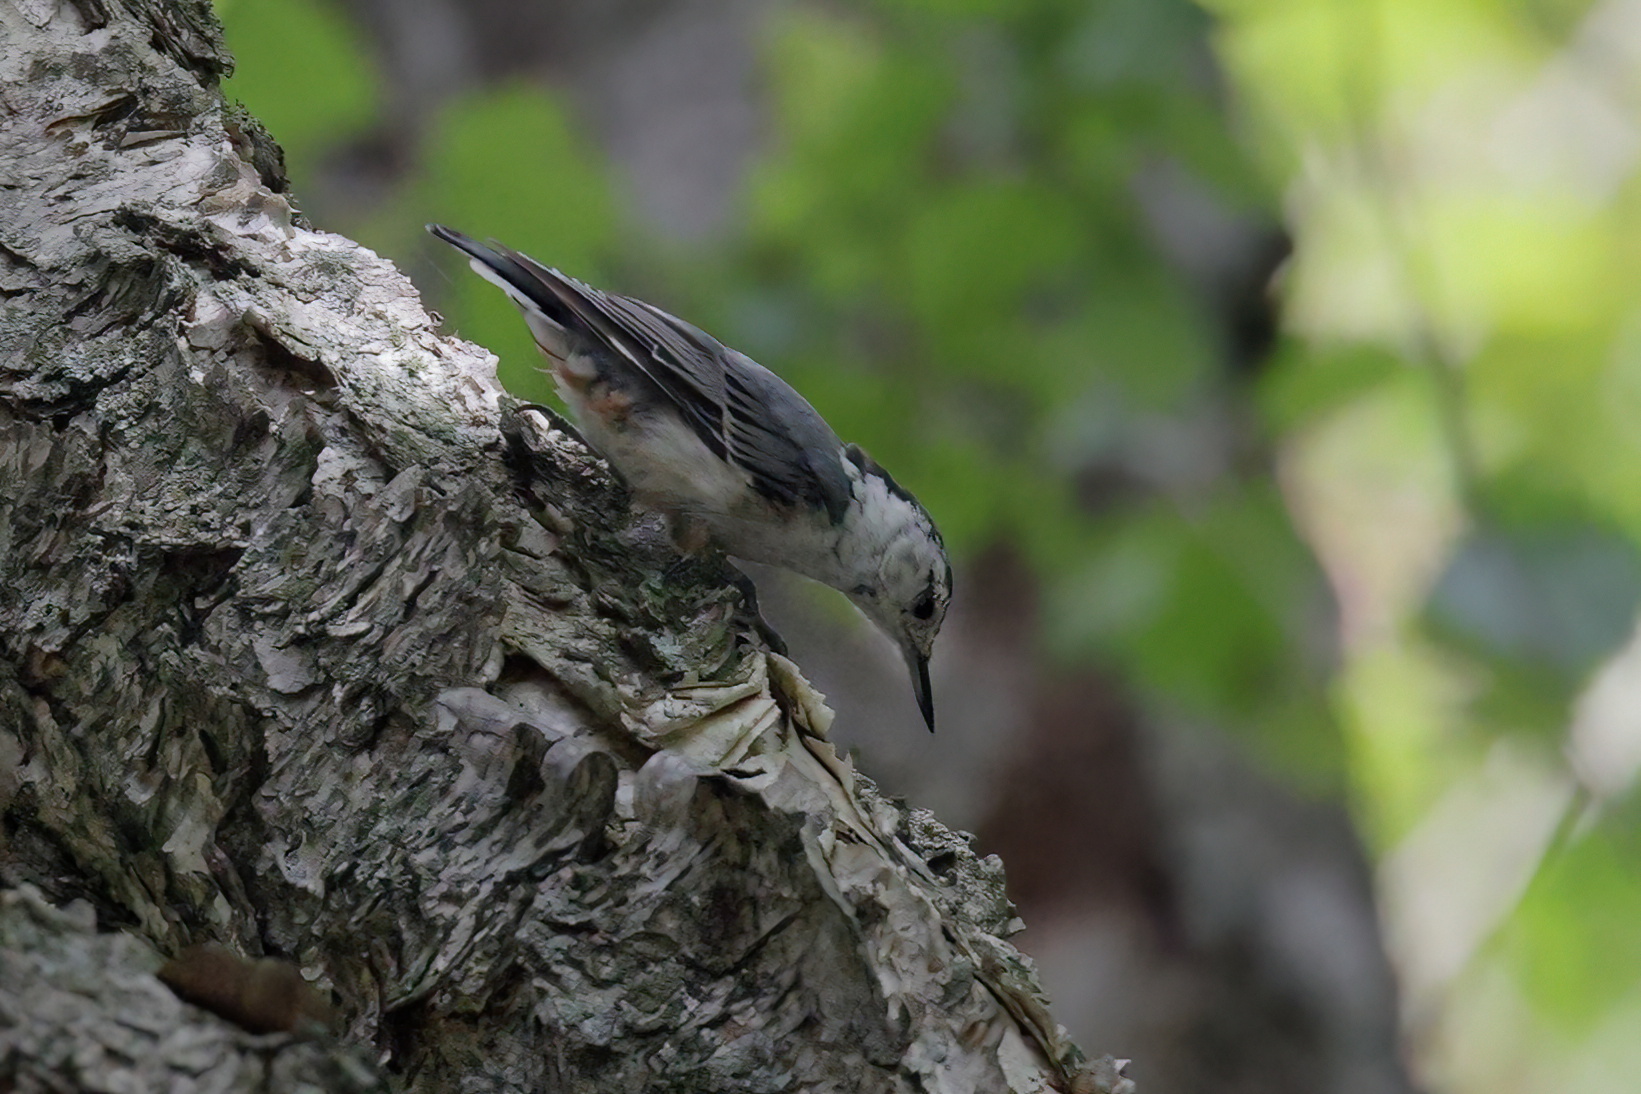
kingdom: Animalia
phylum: Chordata
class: Aves
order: Passeriformes
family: Sittidae
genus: Sitta
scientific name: Sitta carolinensis
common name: White-breasted nuthatch
